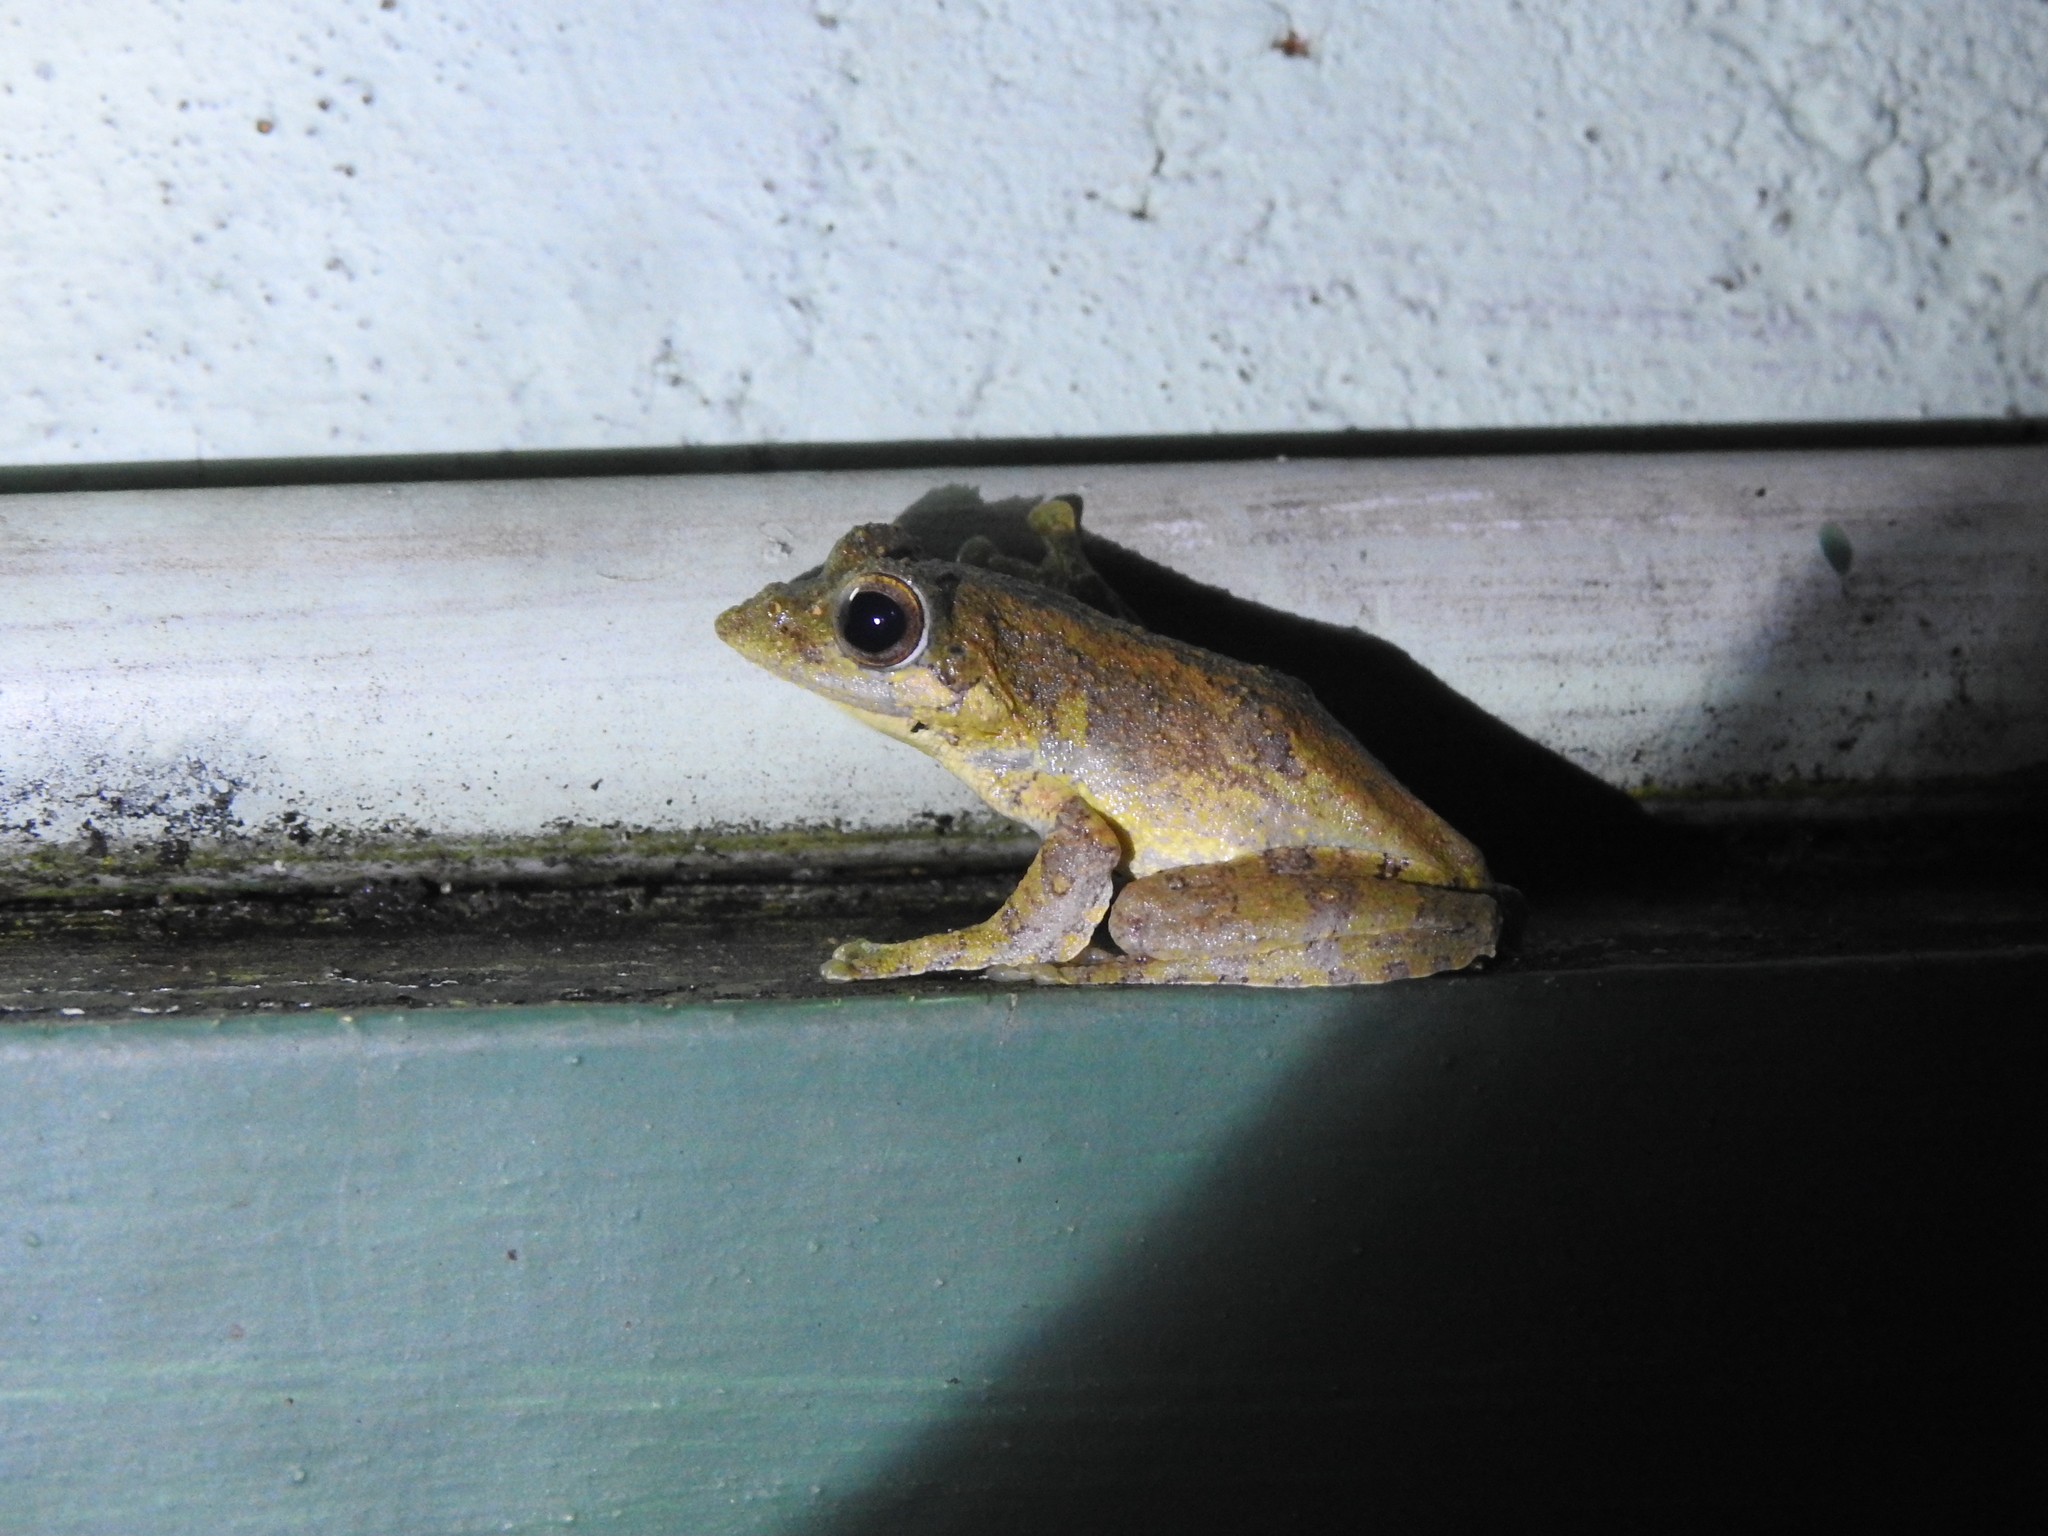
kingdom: Animalia
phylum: Chordata
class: Amphibia
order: Anura
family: Rhacophoridae
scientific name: Rhacophoridae
